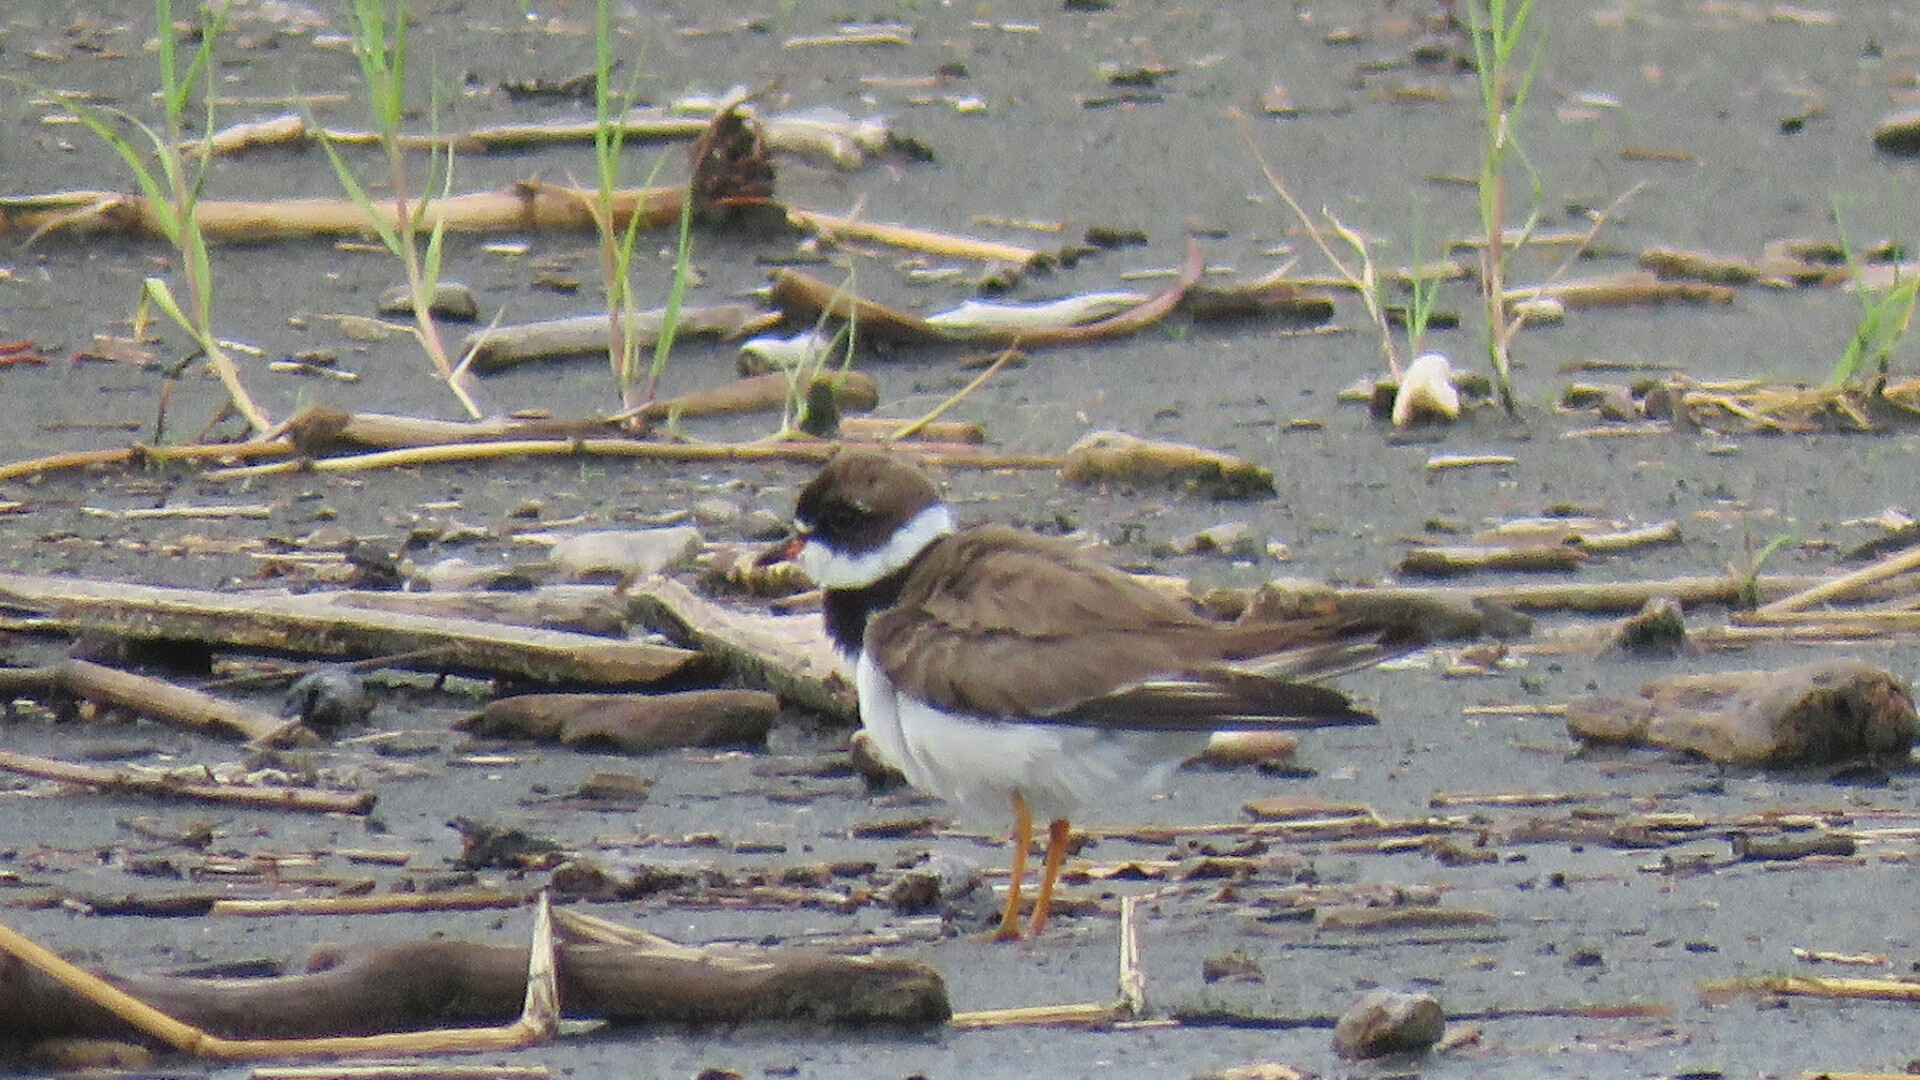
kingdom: Animalia
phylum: Chordata
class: Aves
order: Charadriiformes
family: Charadriidae
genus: Charadrius
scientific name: Charadrius semipalmatus
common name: Semipalmated plover
